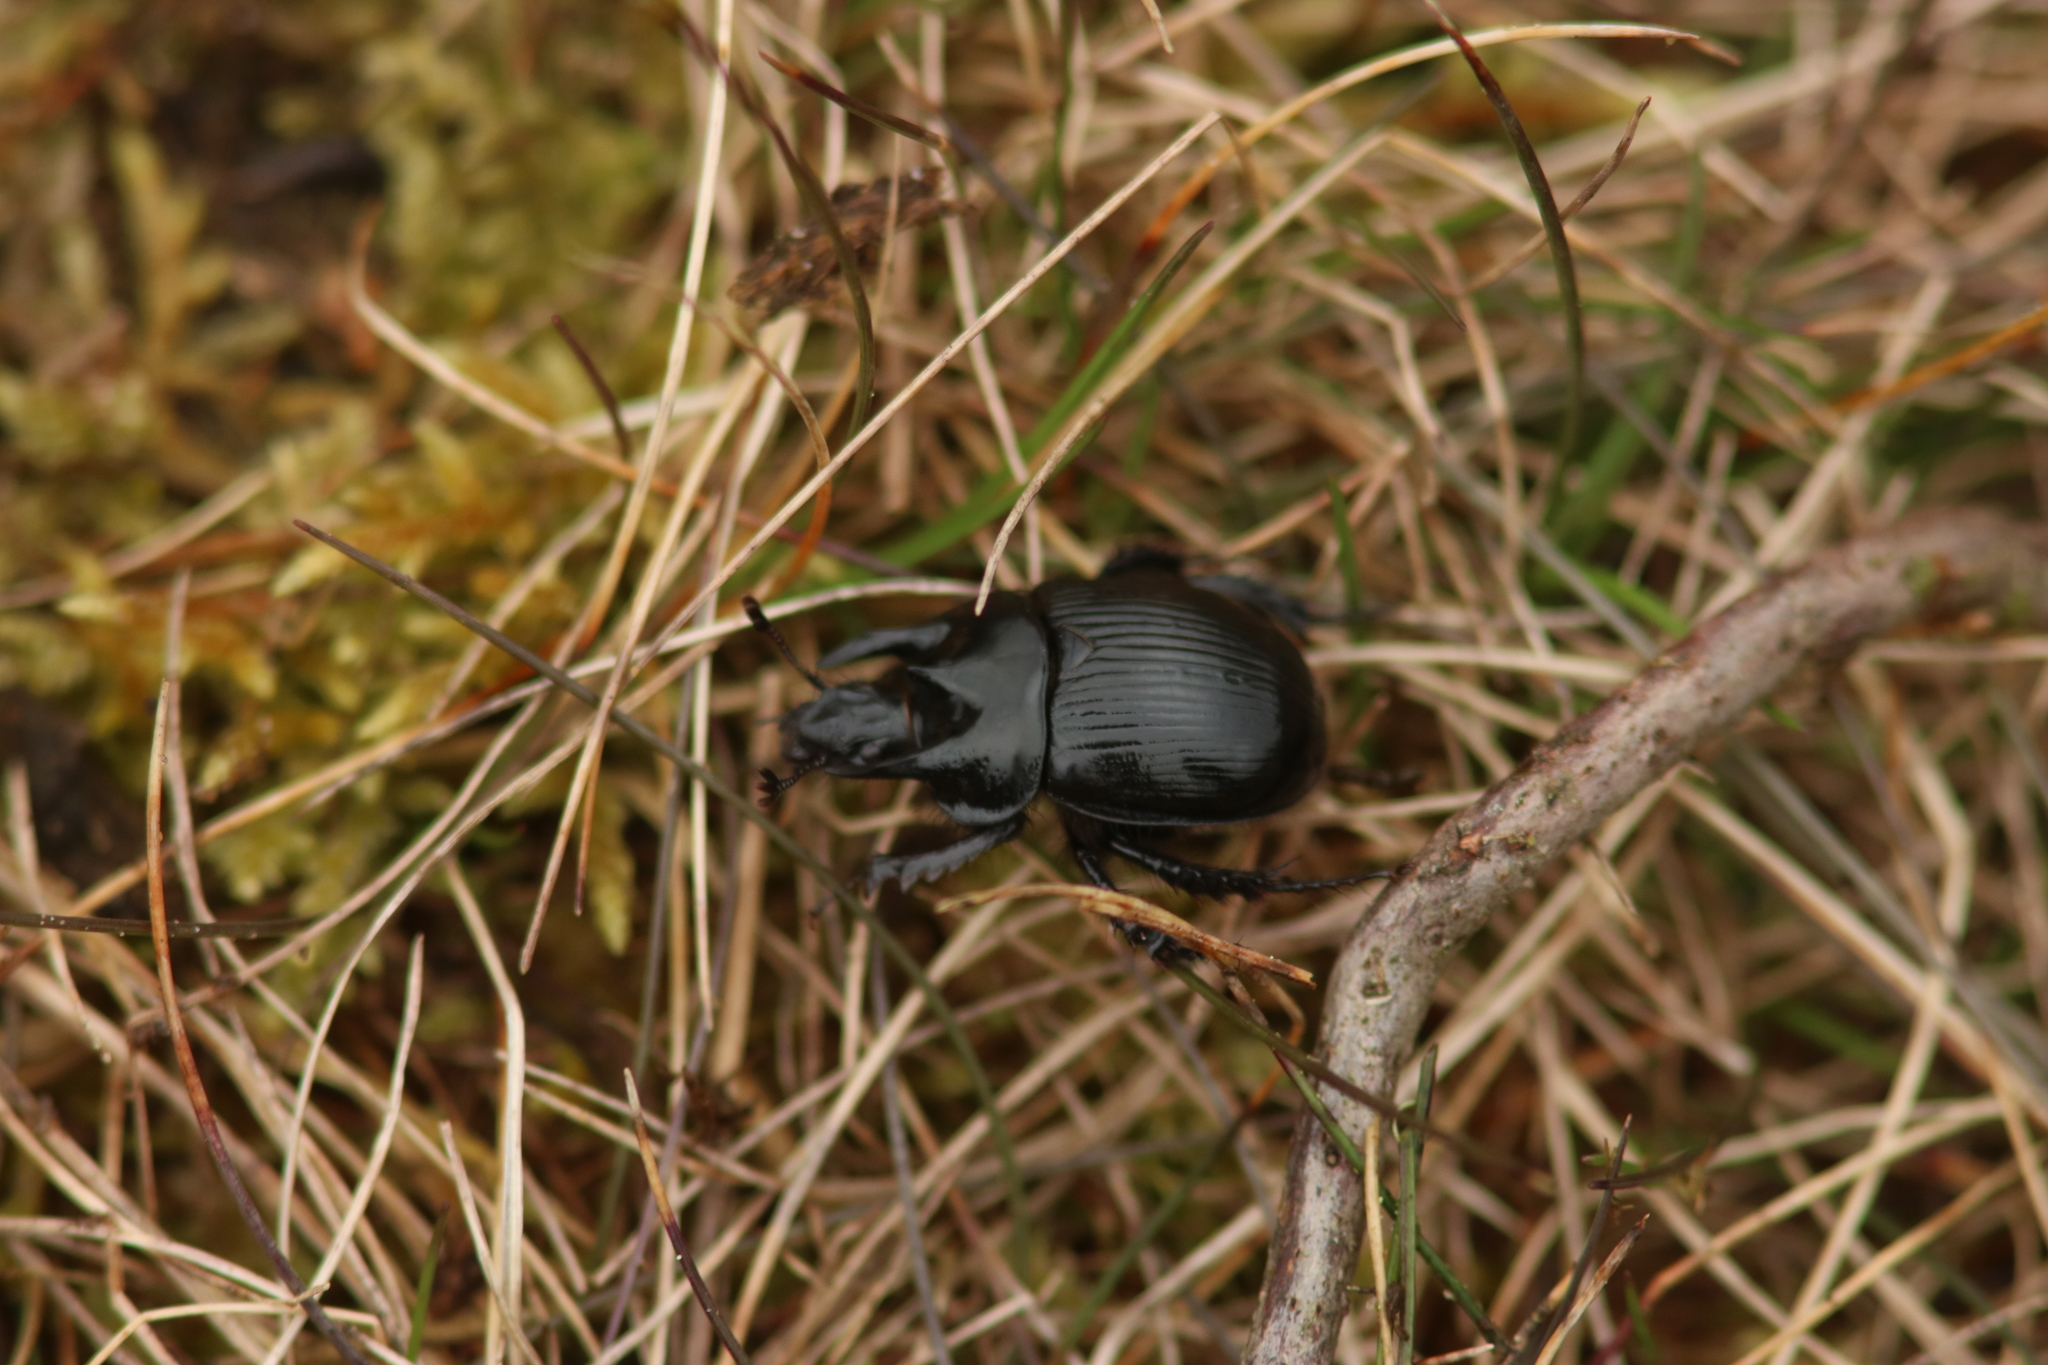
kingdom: Animalia
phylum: Arthropoda
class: Insecta
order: Coleoptera
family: Geotrupidae
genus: Typhaeus
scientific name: Typhaeus typhoeus
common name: Minotaur beetle
